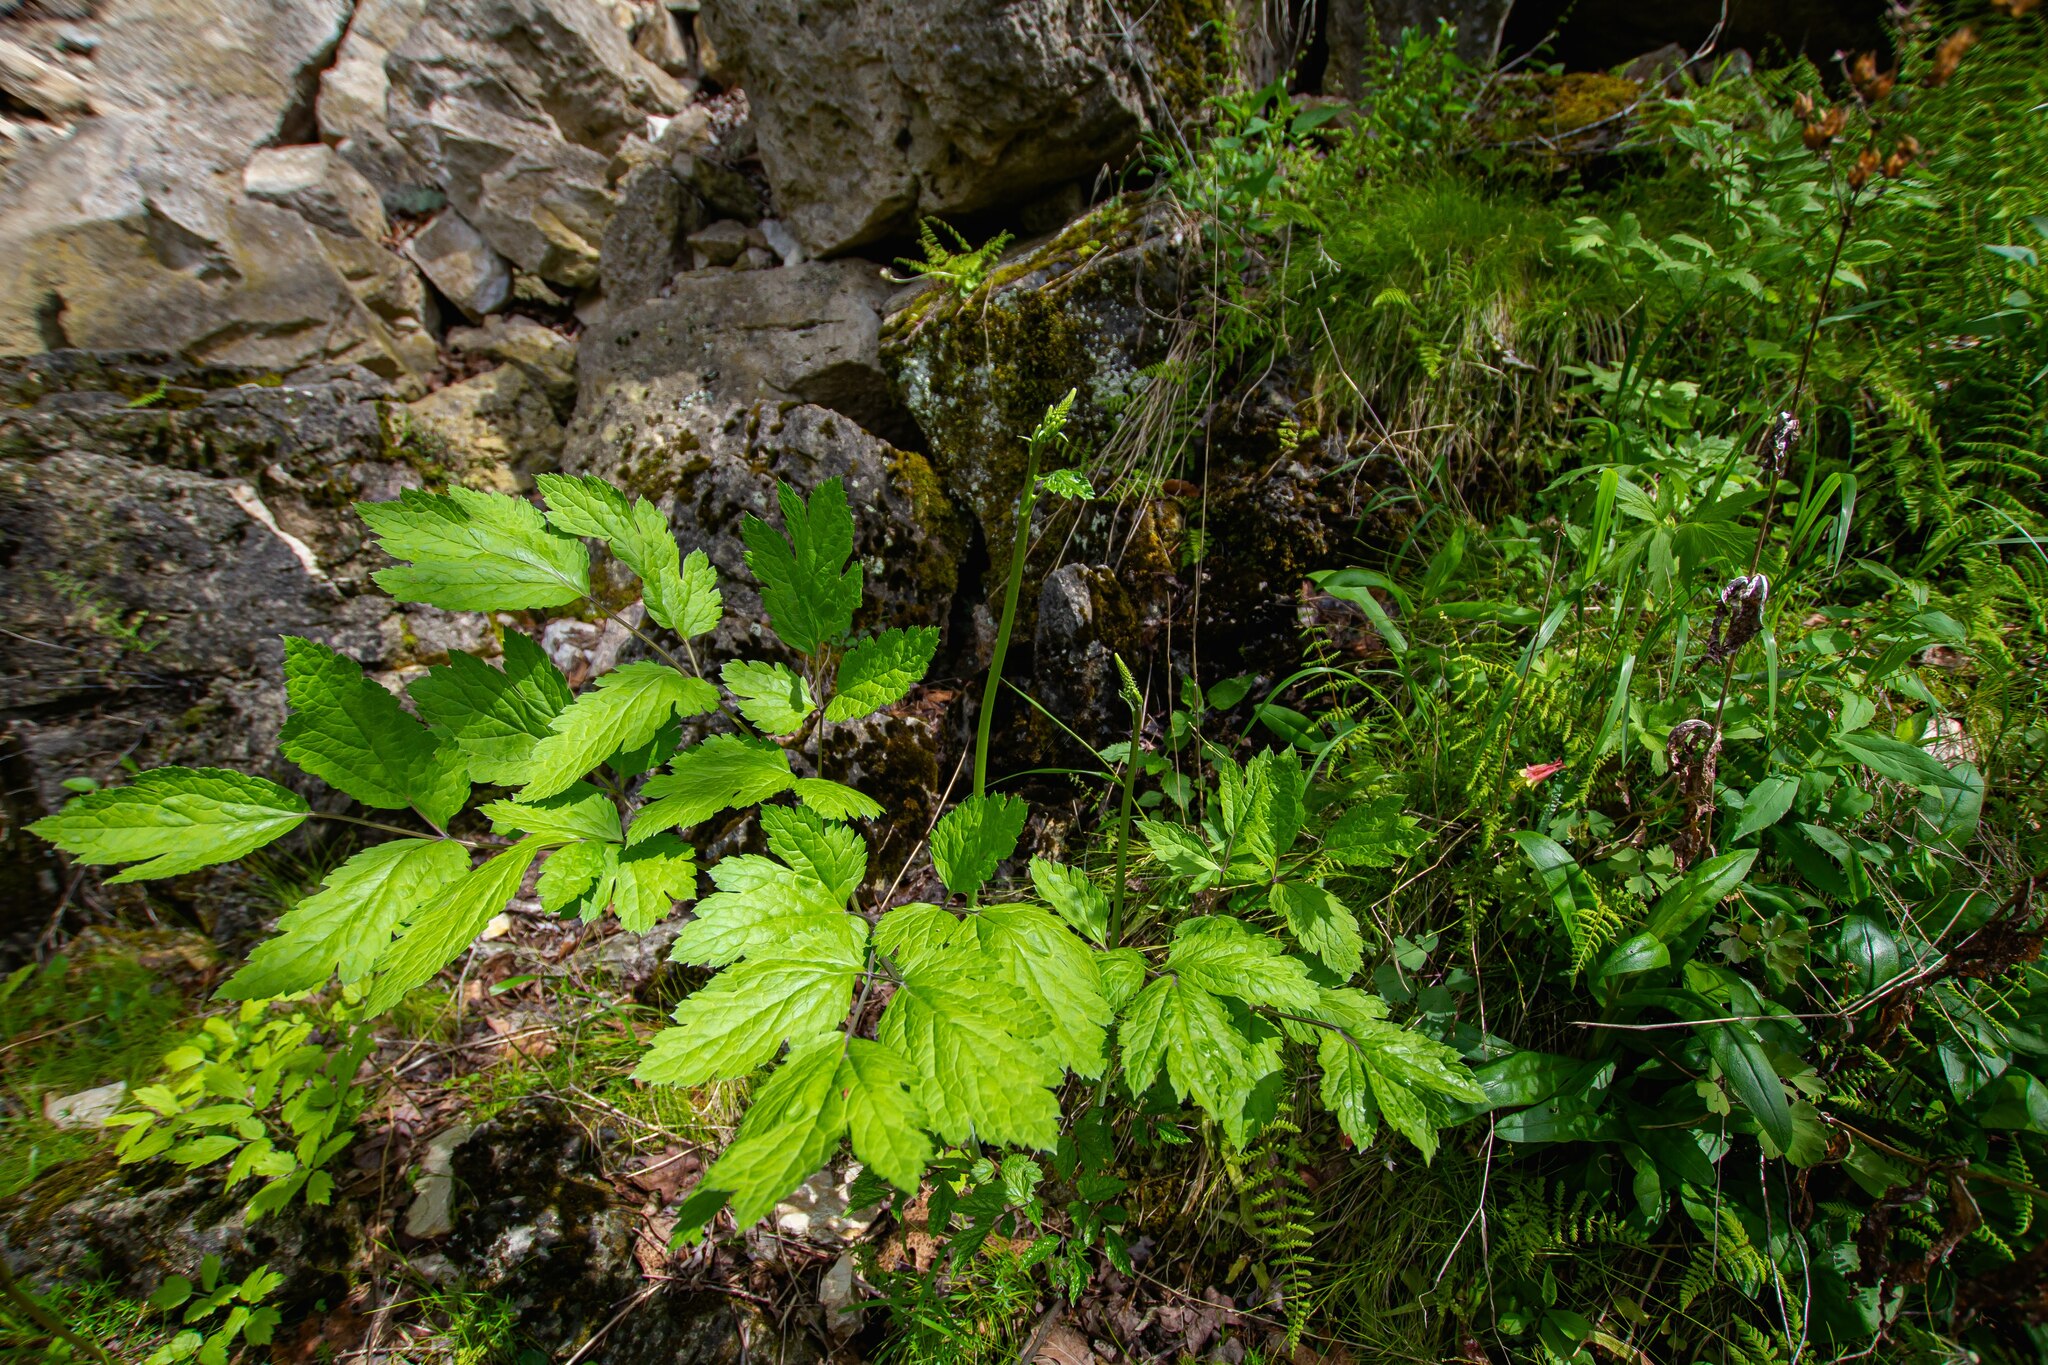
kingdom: Plantae
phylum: Tracheophyta
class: Magnoliopsida
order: Ranunculales
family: Ranunculaceae
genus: Actaea
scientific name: Actaea racemosa
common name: Black cohosh
